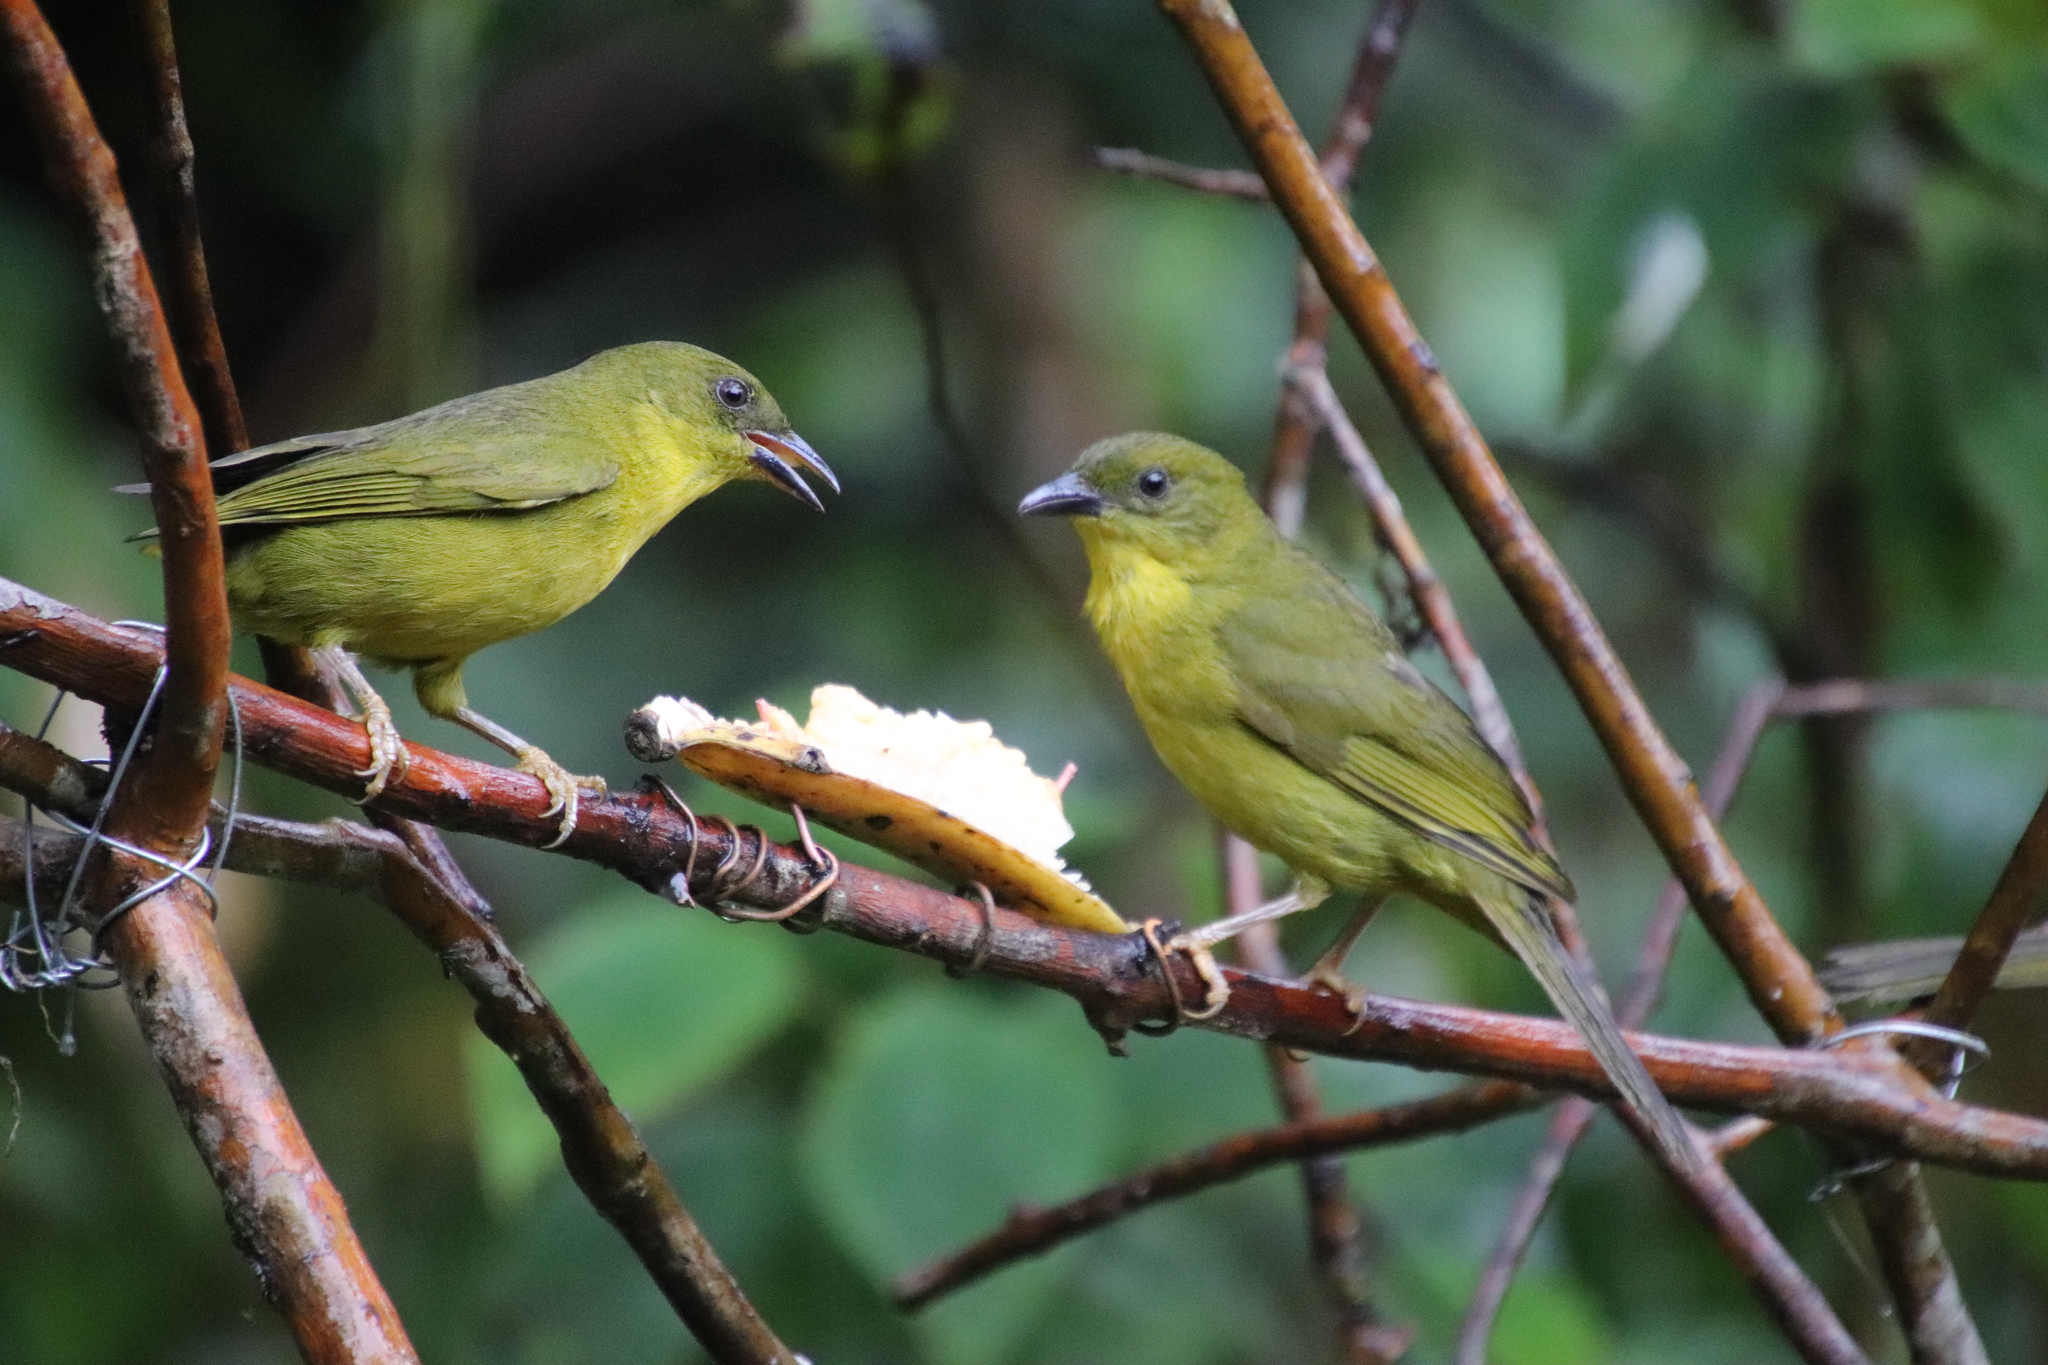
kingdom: Animalia
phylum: Chordata
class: Aves
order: Passeriformes
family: Mitrospingidae
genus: Orthogonys
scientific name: Orthogonys chloricterus
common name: Olive-green tanager
